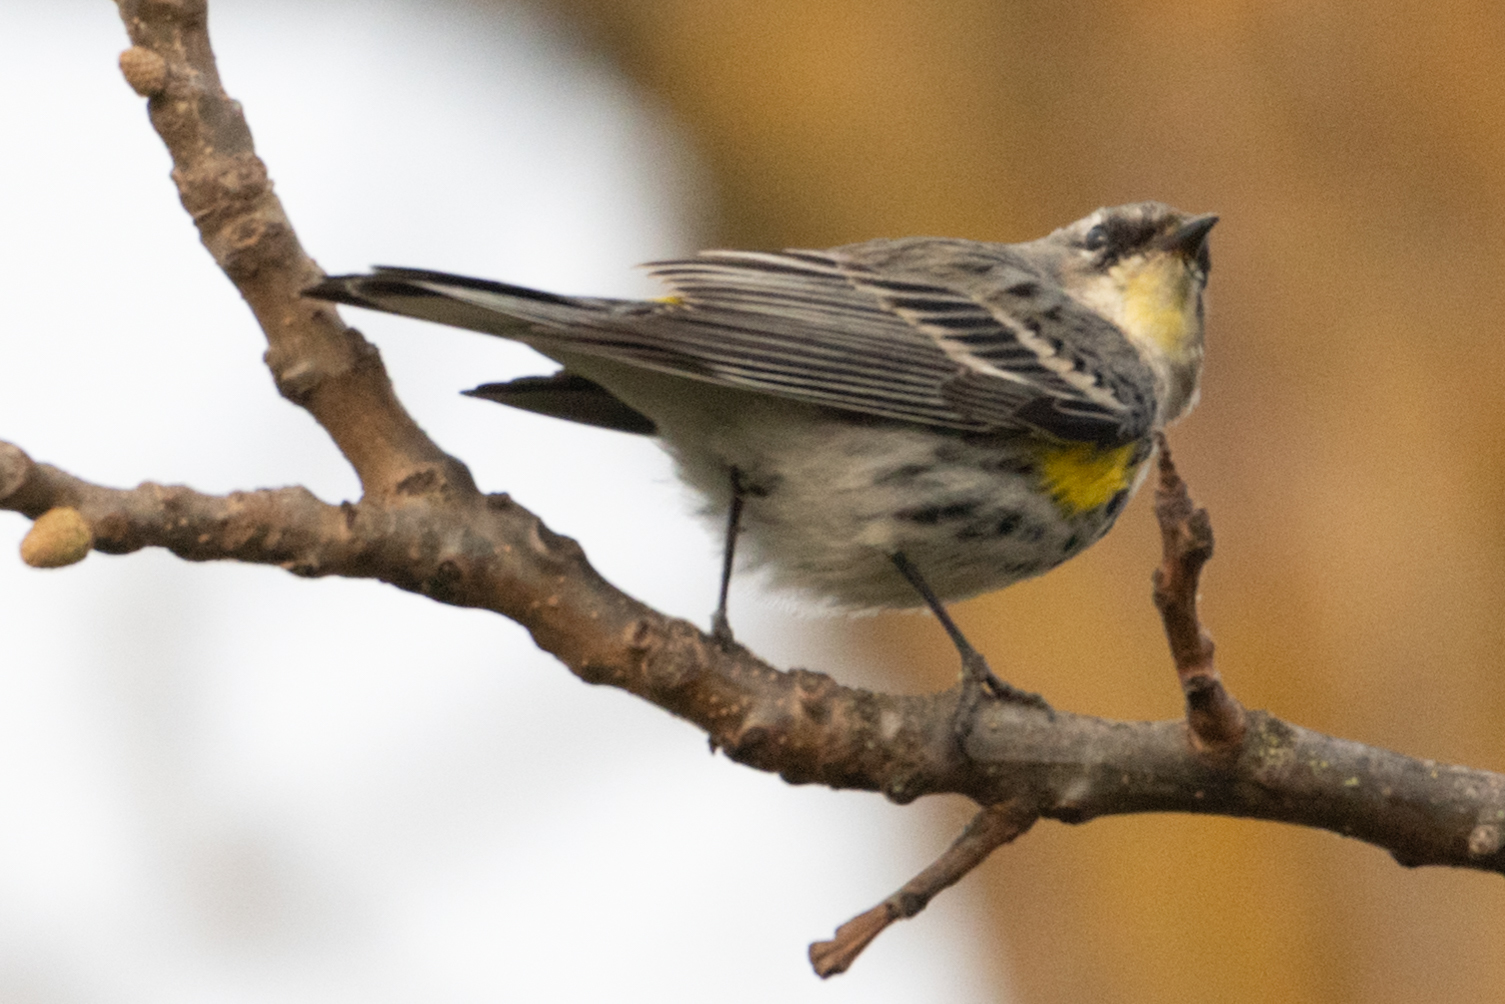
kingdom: Animalia
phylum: Chordata
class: Aves
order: Passeriformes
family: Parulidae
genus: Setophaga
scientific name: Setophaga auduboni
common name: Audubon's warbler
